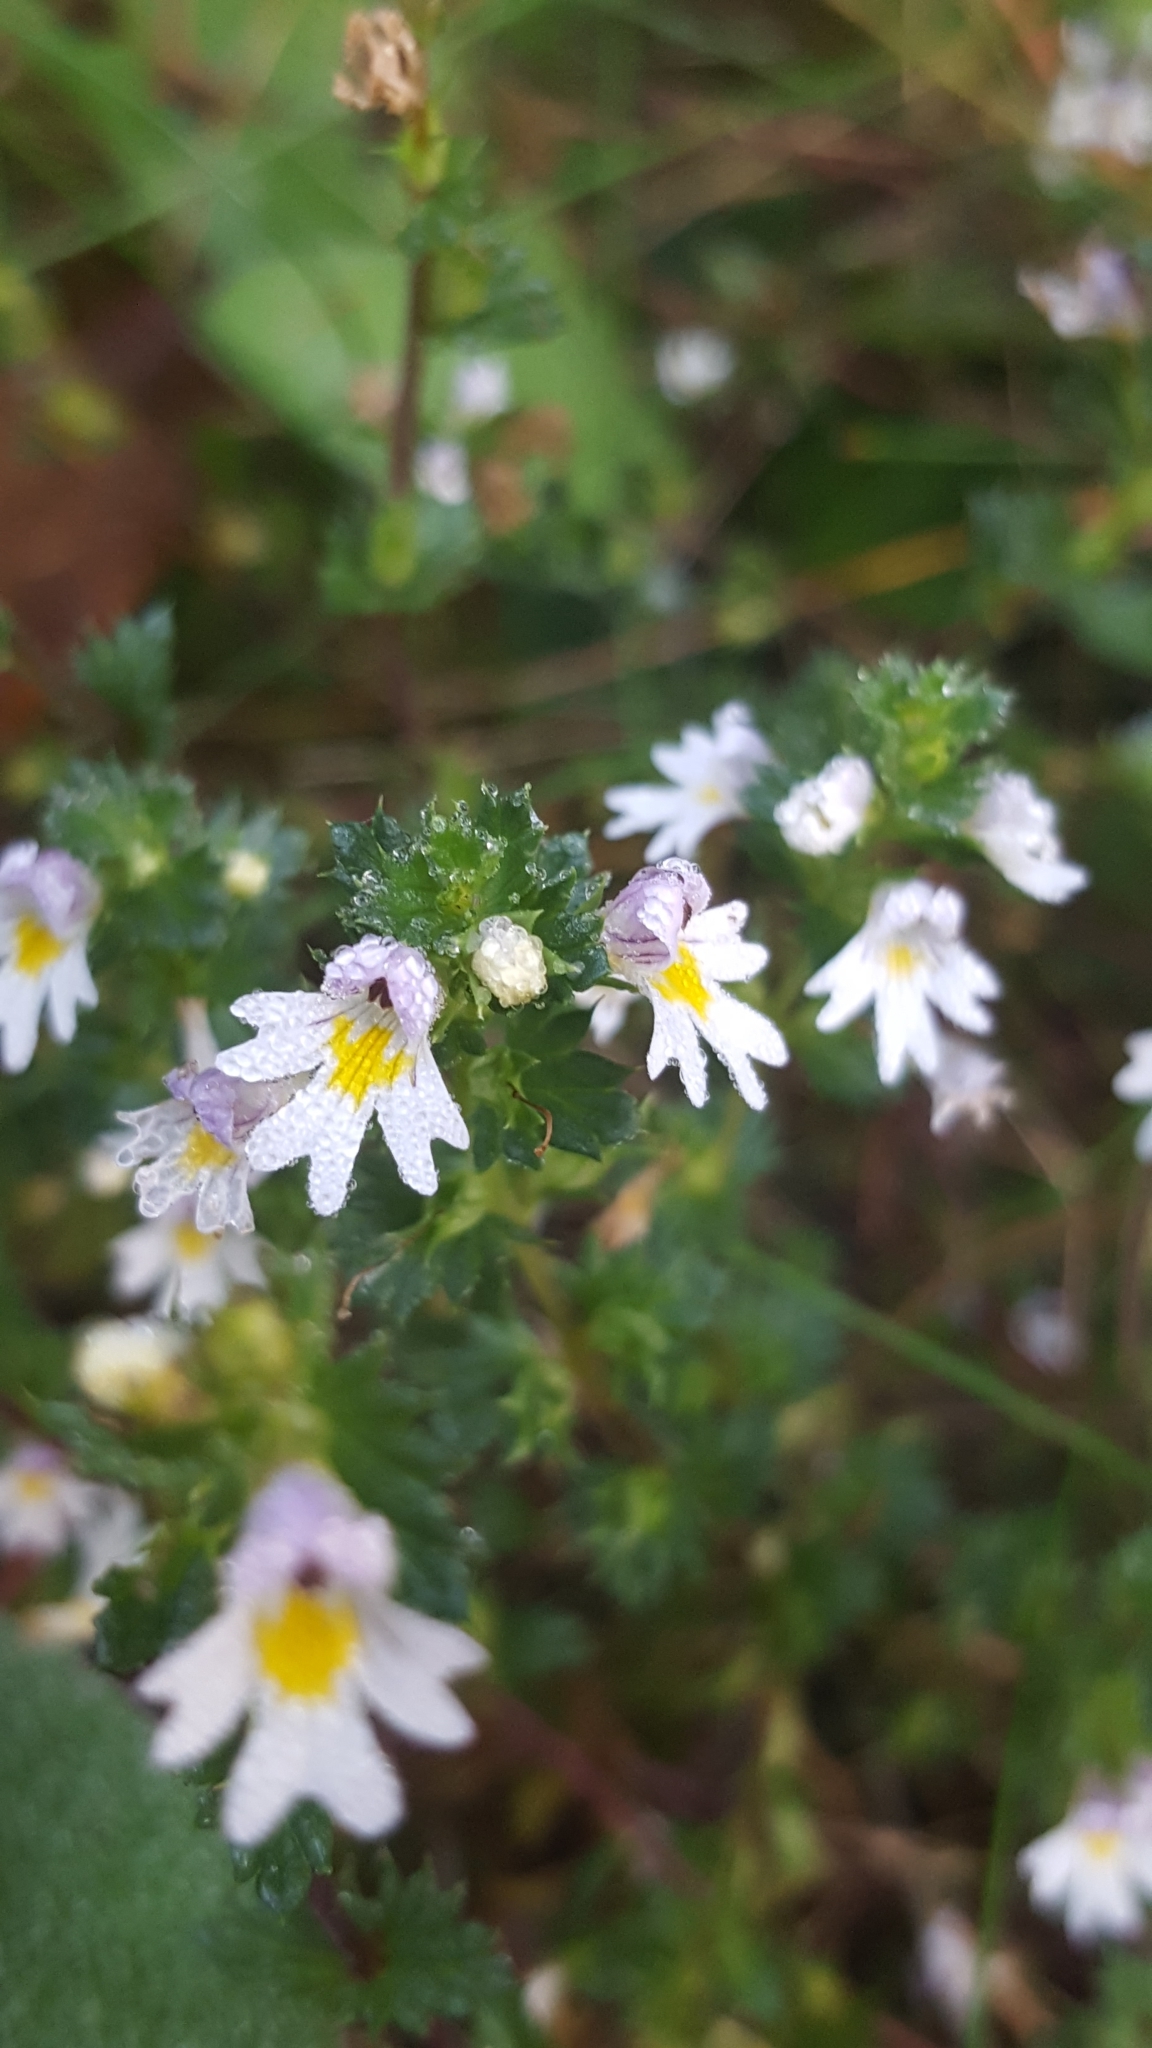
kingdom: Plantae
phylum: Tracheophyta
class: Magnoliopsida
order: Lamiales
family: Orobanchaceae
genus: Euphrasia
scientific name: Euphrasia nemorosa
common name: Common eyebright
